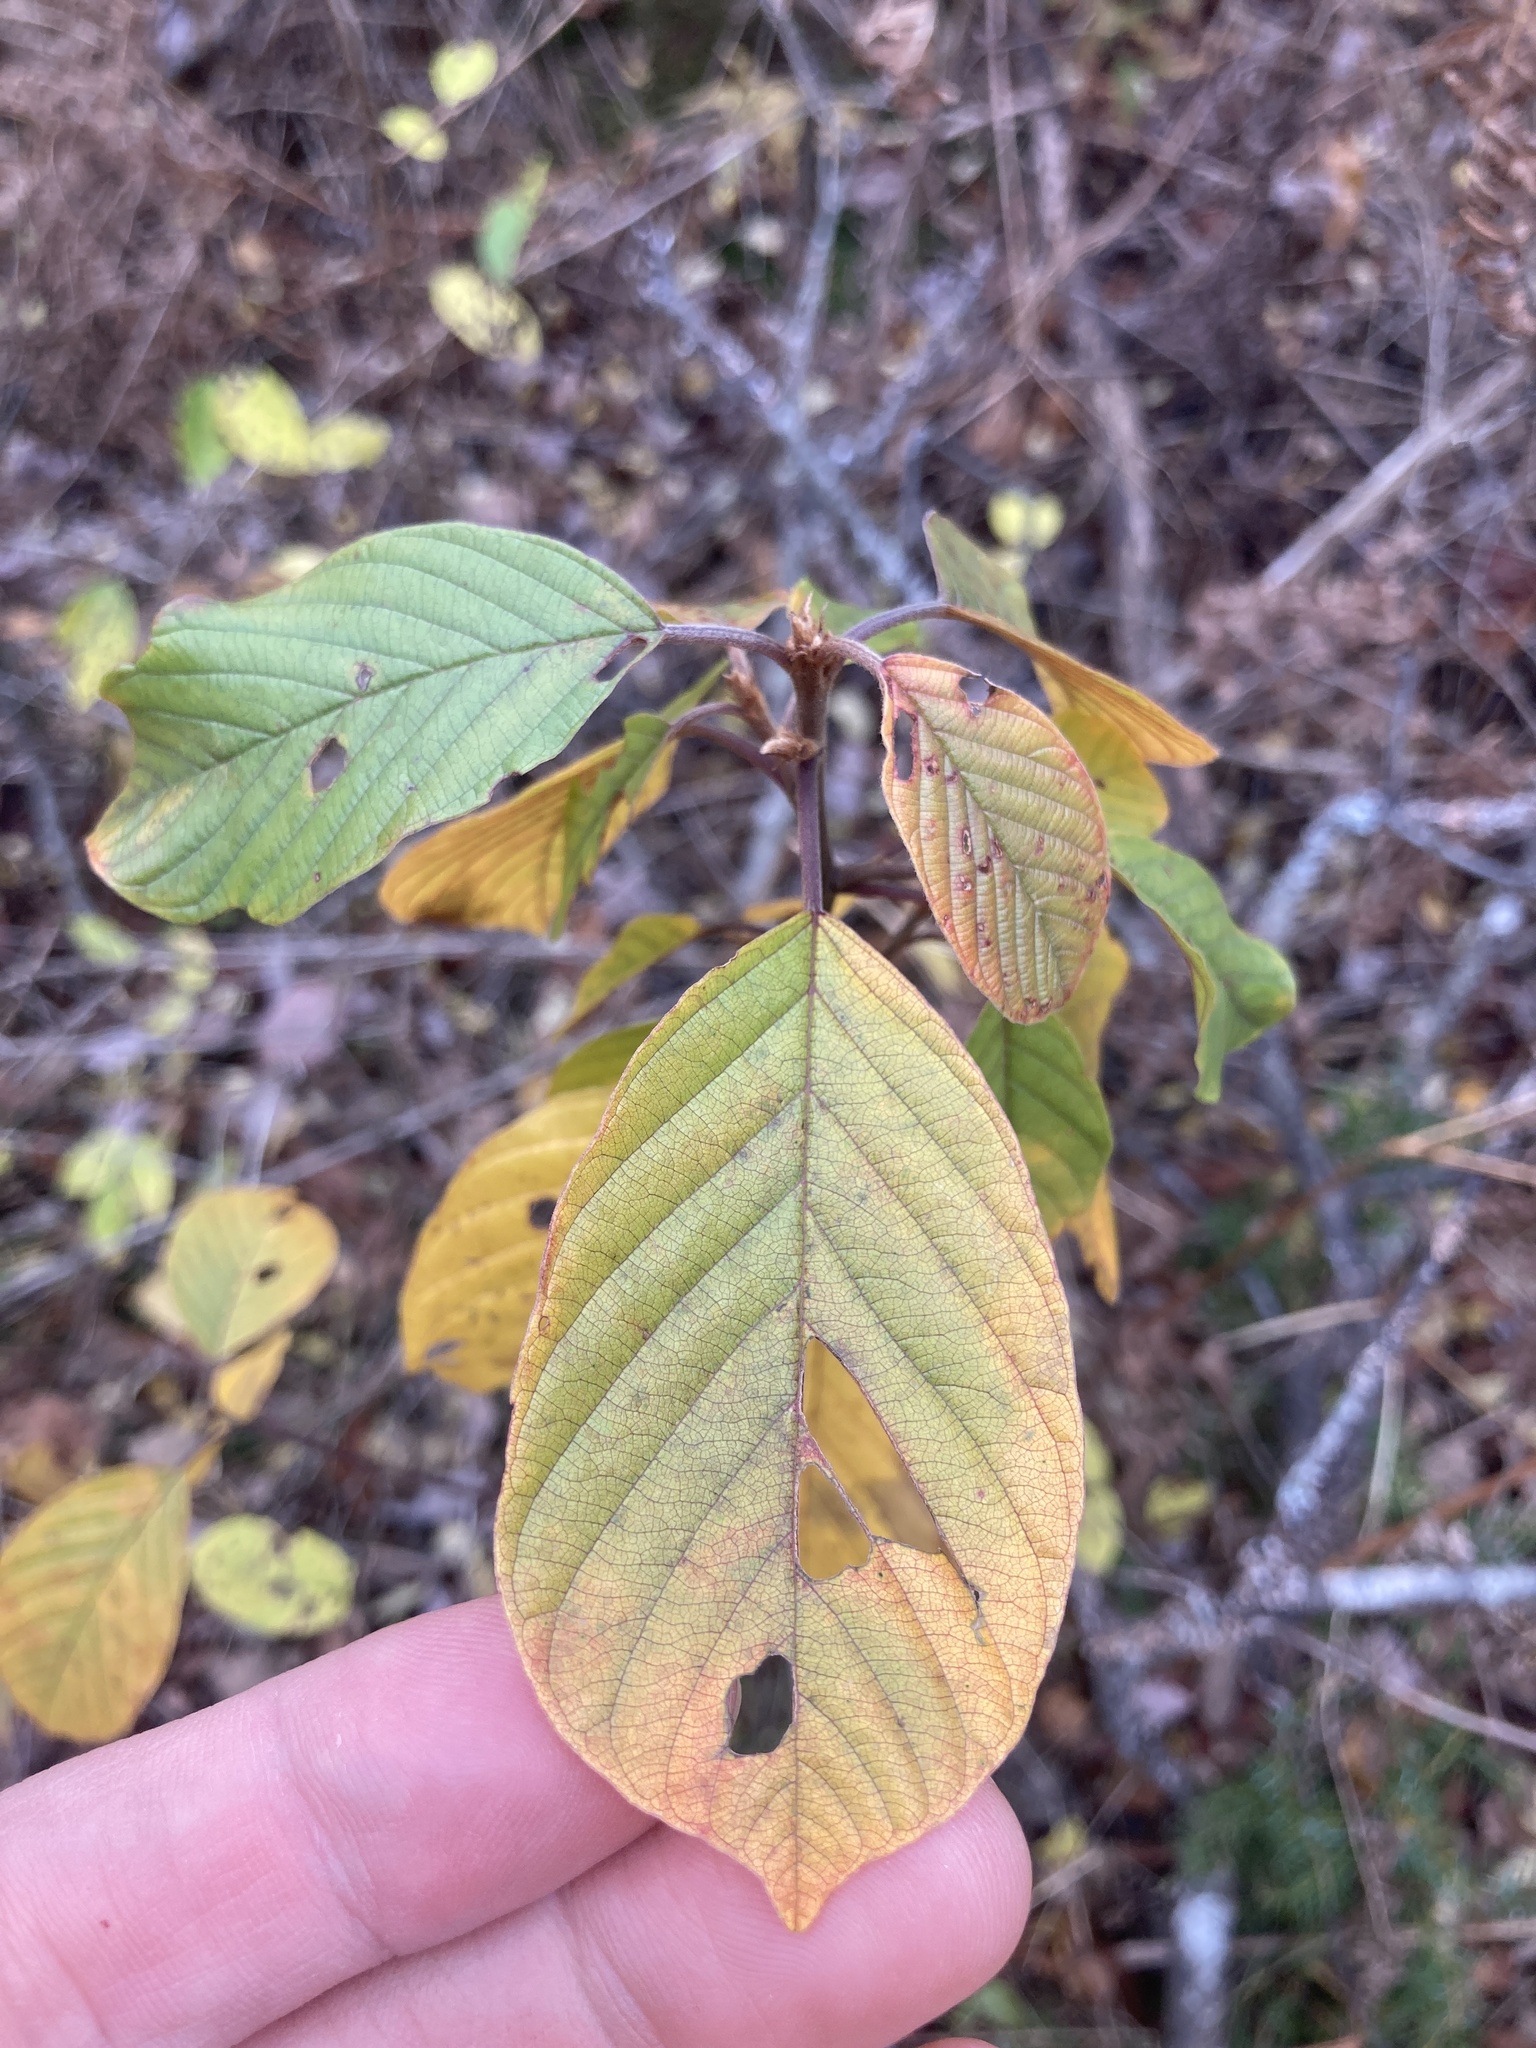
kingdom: Plantae
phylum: Tracheophyta
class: Magnoliopsida
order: Rosales
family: Rhamnaceae
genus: Frangula
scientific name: Frangula alnus
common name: Alder buckthorn
